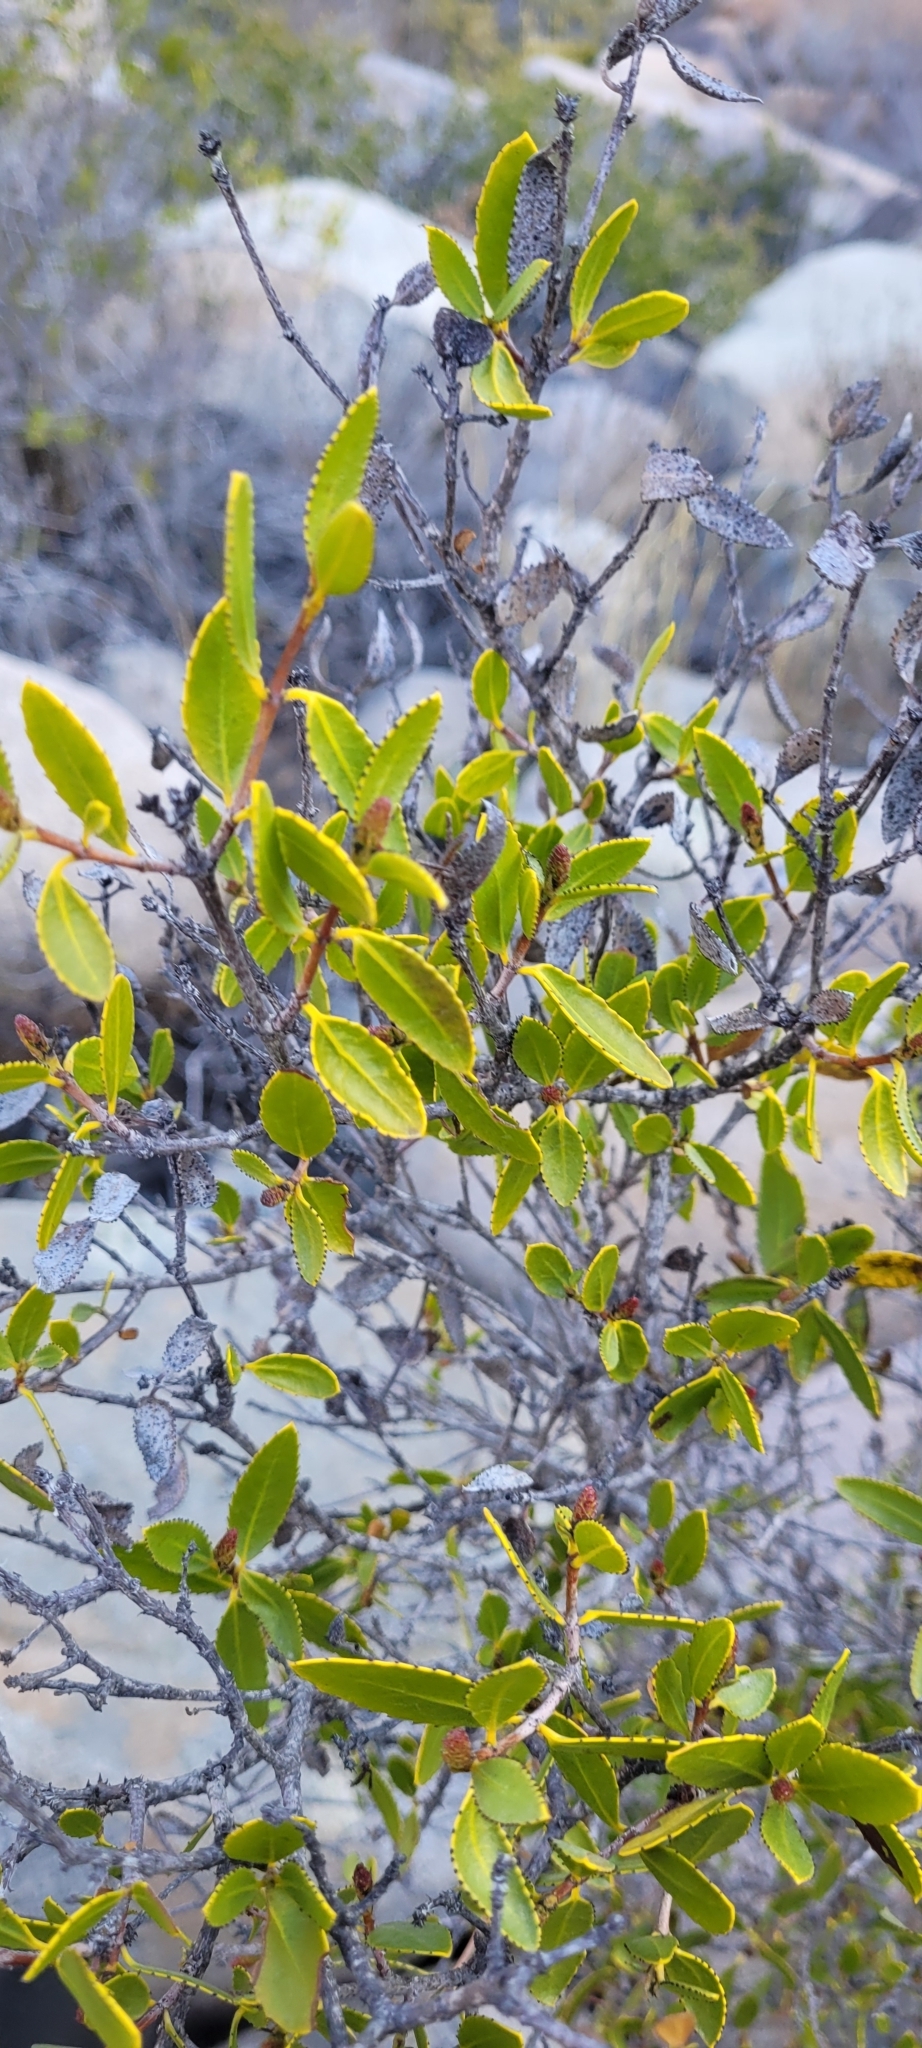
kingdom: Plantae
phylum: Tracheophyta
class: Magnoliopsida
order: Malpighiales
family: Euphorbiaceae
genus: Colliguaja
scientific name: Colliguaja odorifera
